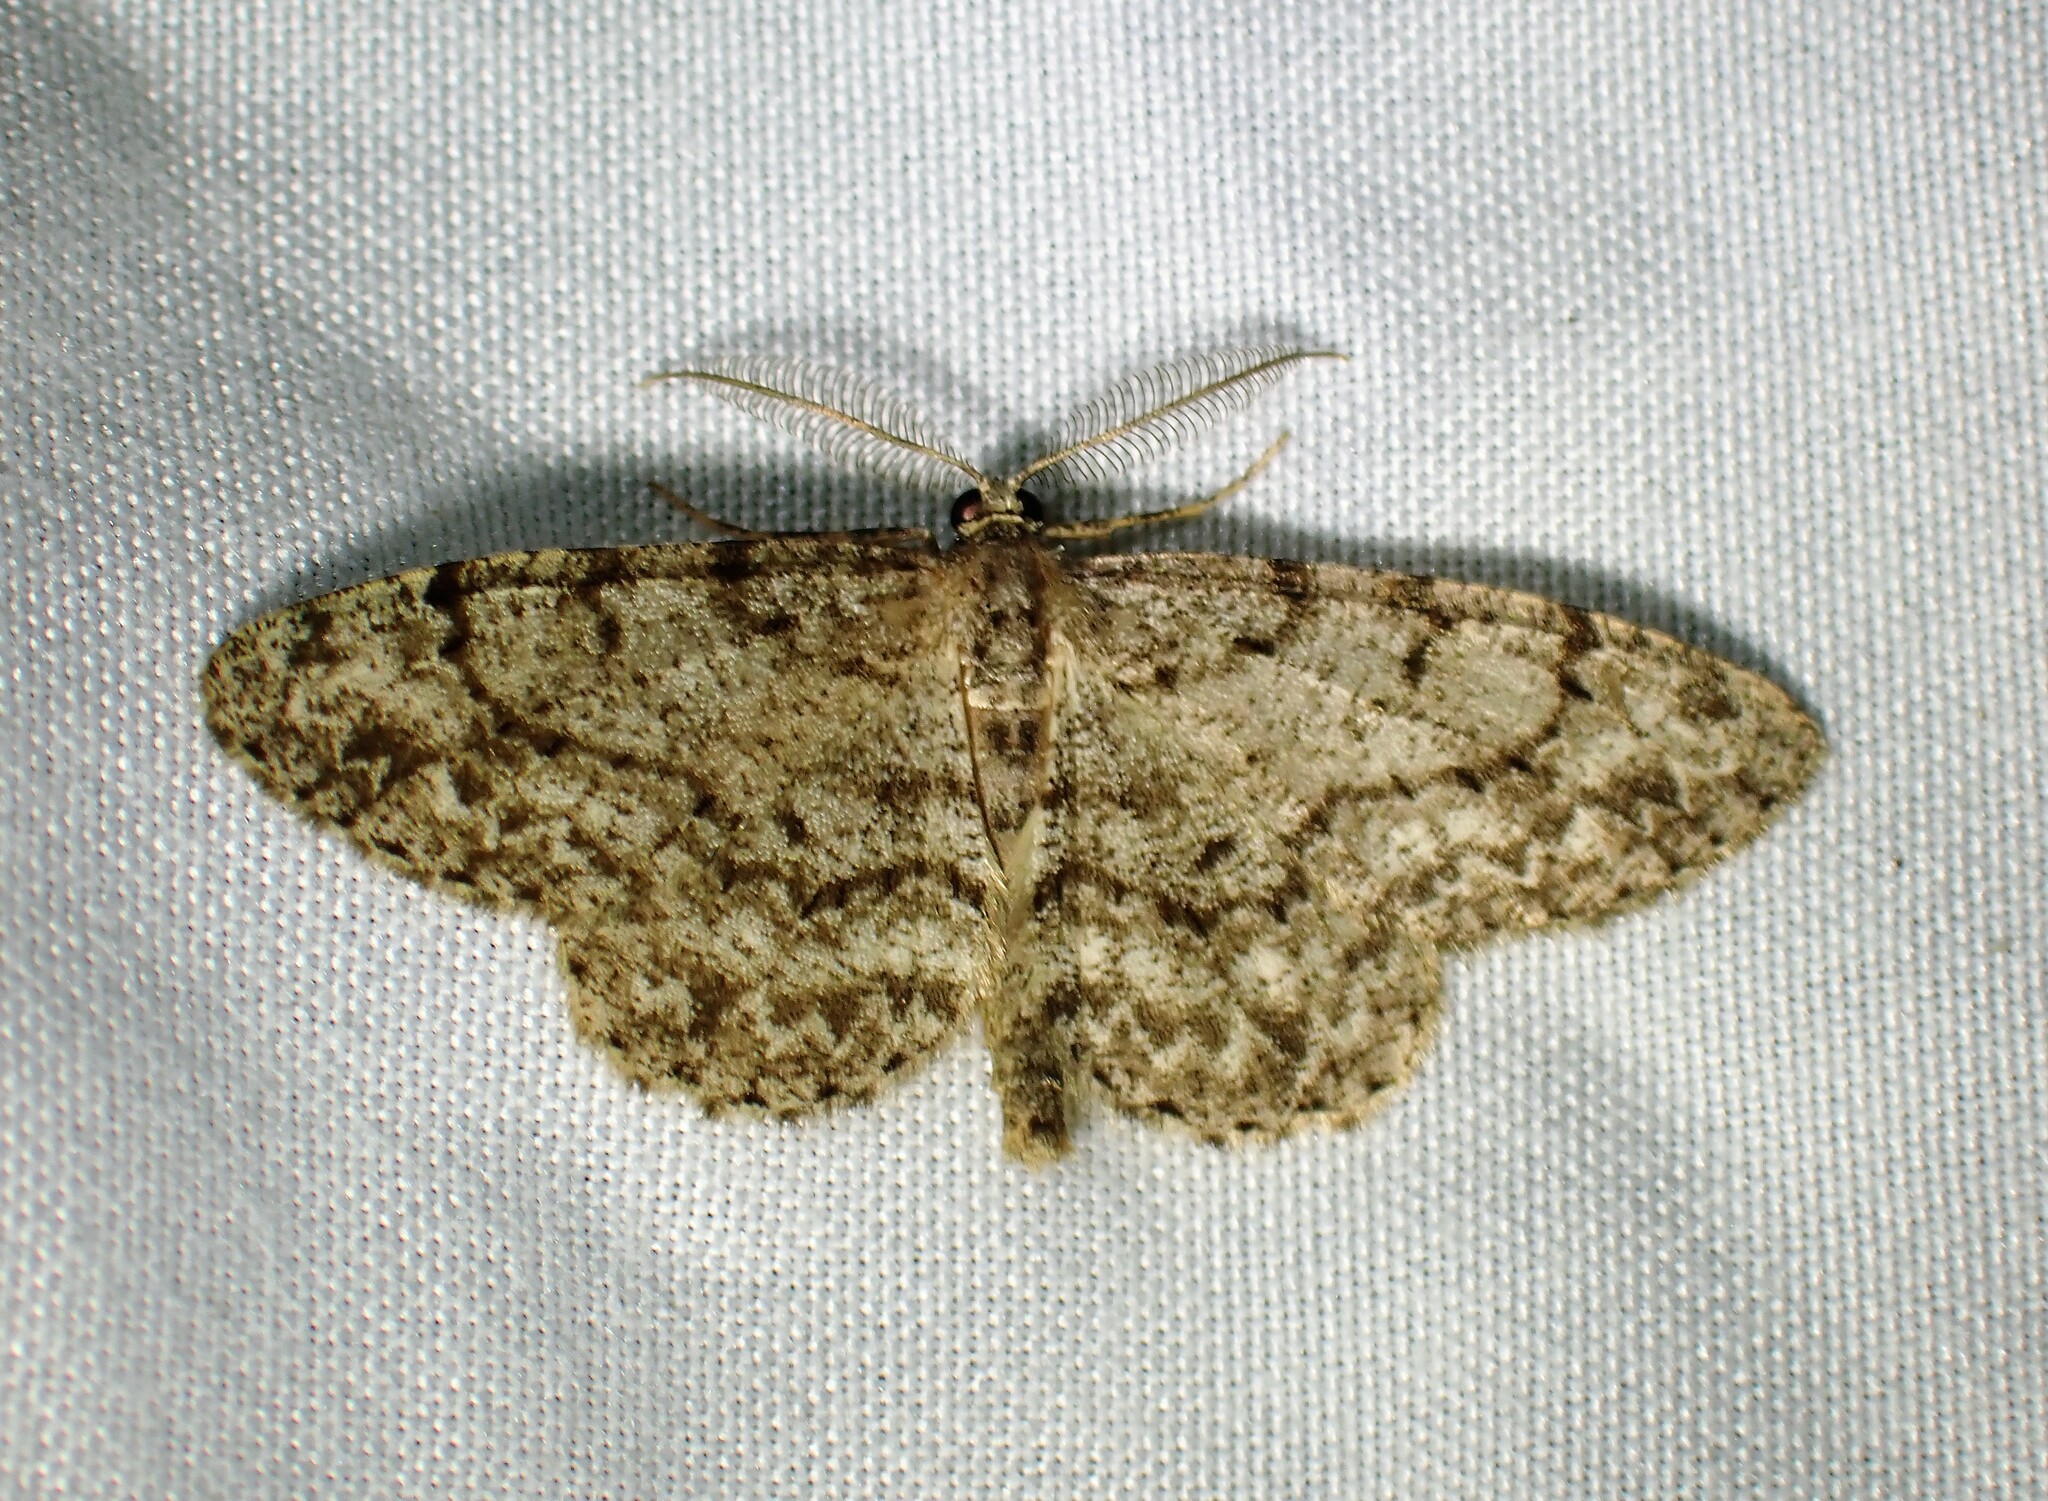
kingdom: Animalia
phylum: Arthropoda
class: Insecta
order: Lepidoptera
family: Geometridae
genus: Protoboarmia
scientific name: Protoboarmia porcelaria
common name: Porcelain gray
